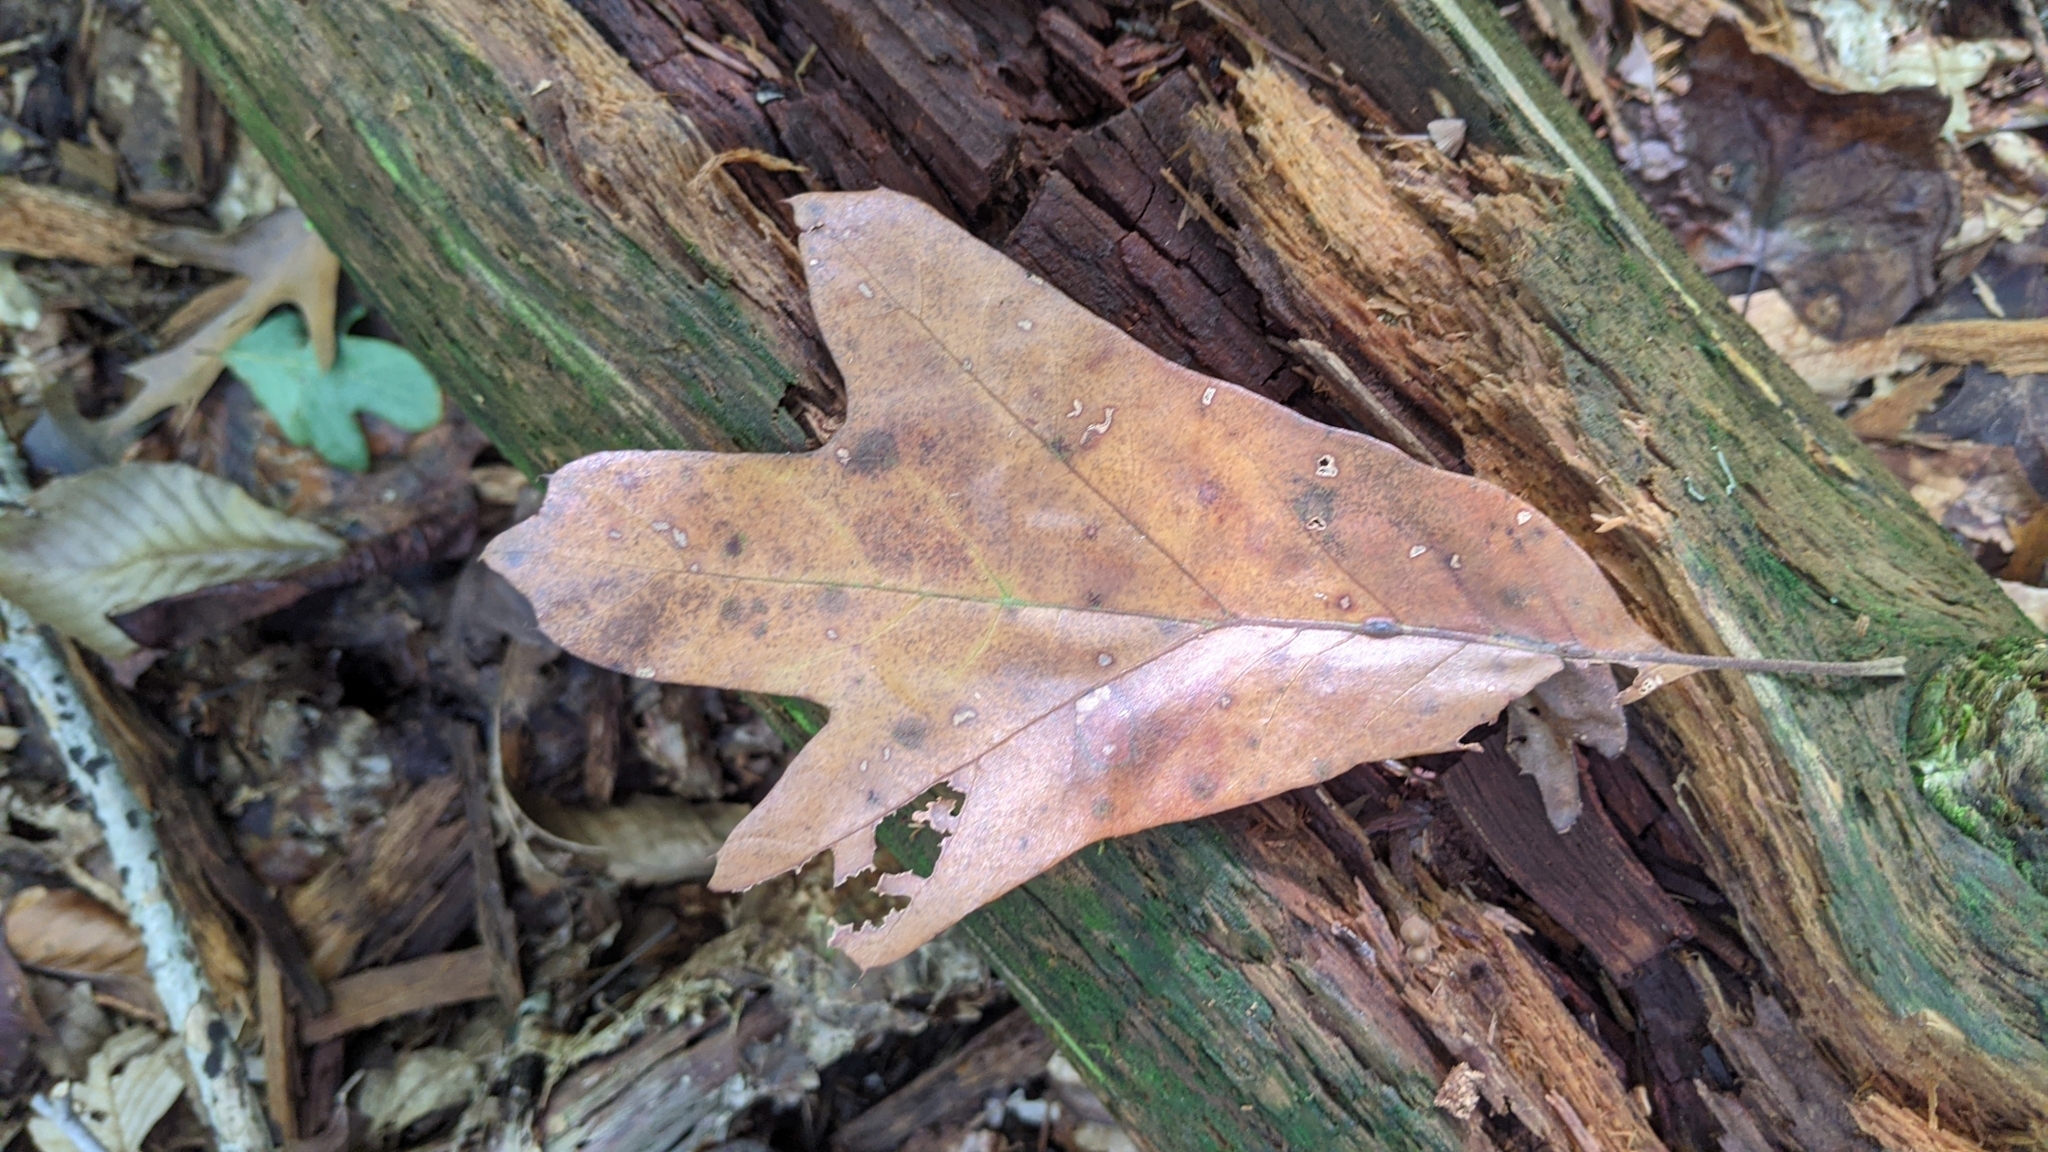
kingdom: Plantae
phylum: Tracheophyta
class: Magnoliopsida
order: Fagales
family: Fagaceae
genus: Quercus
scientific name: Quercus falcata
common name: Southern red oak
